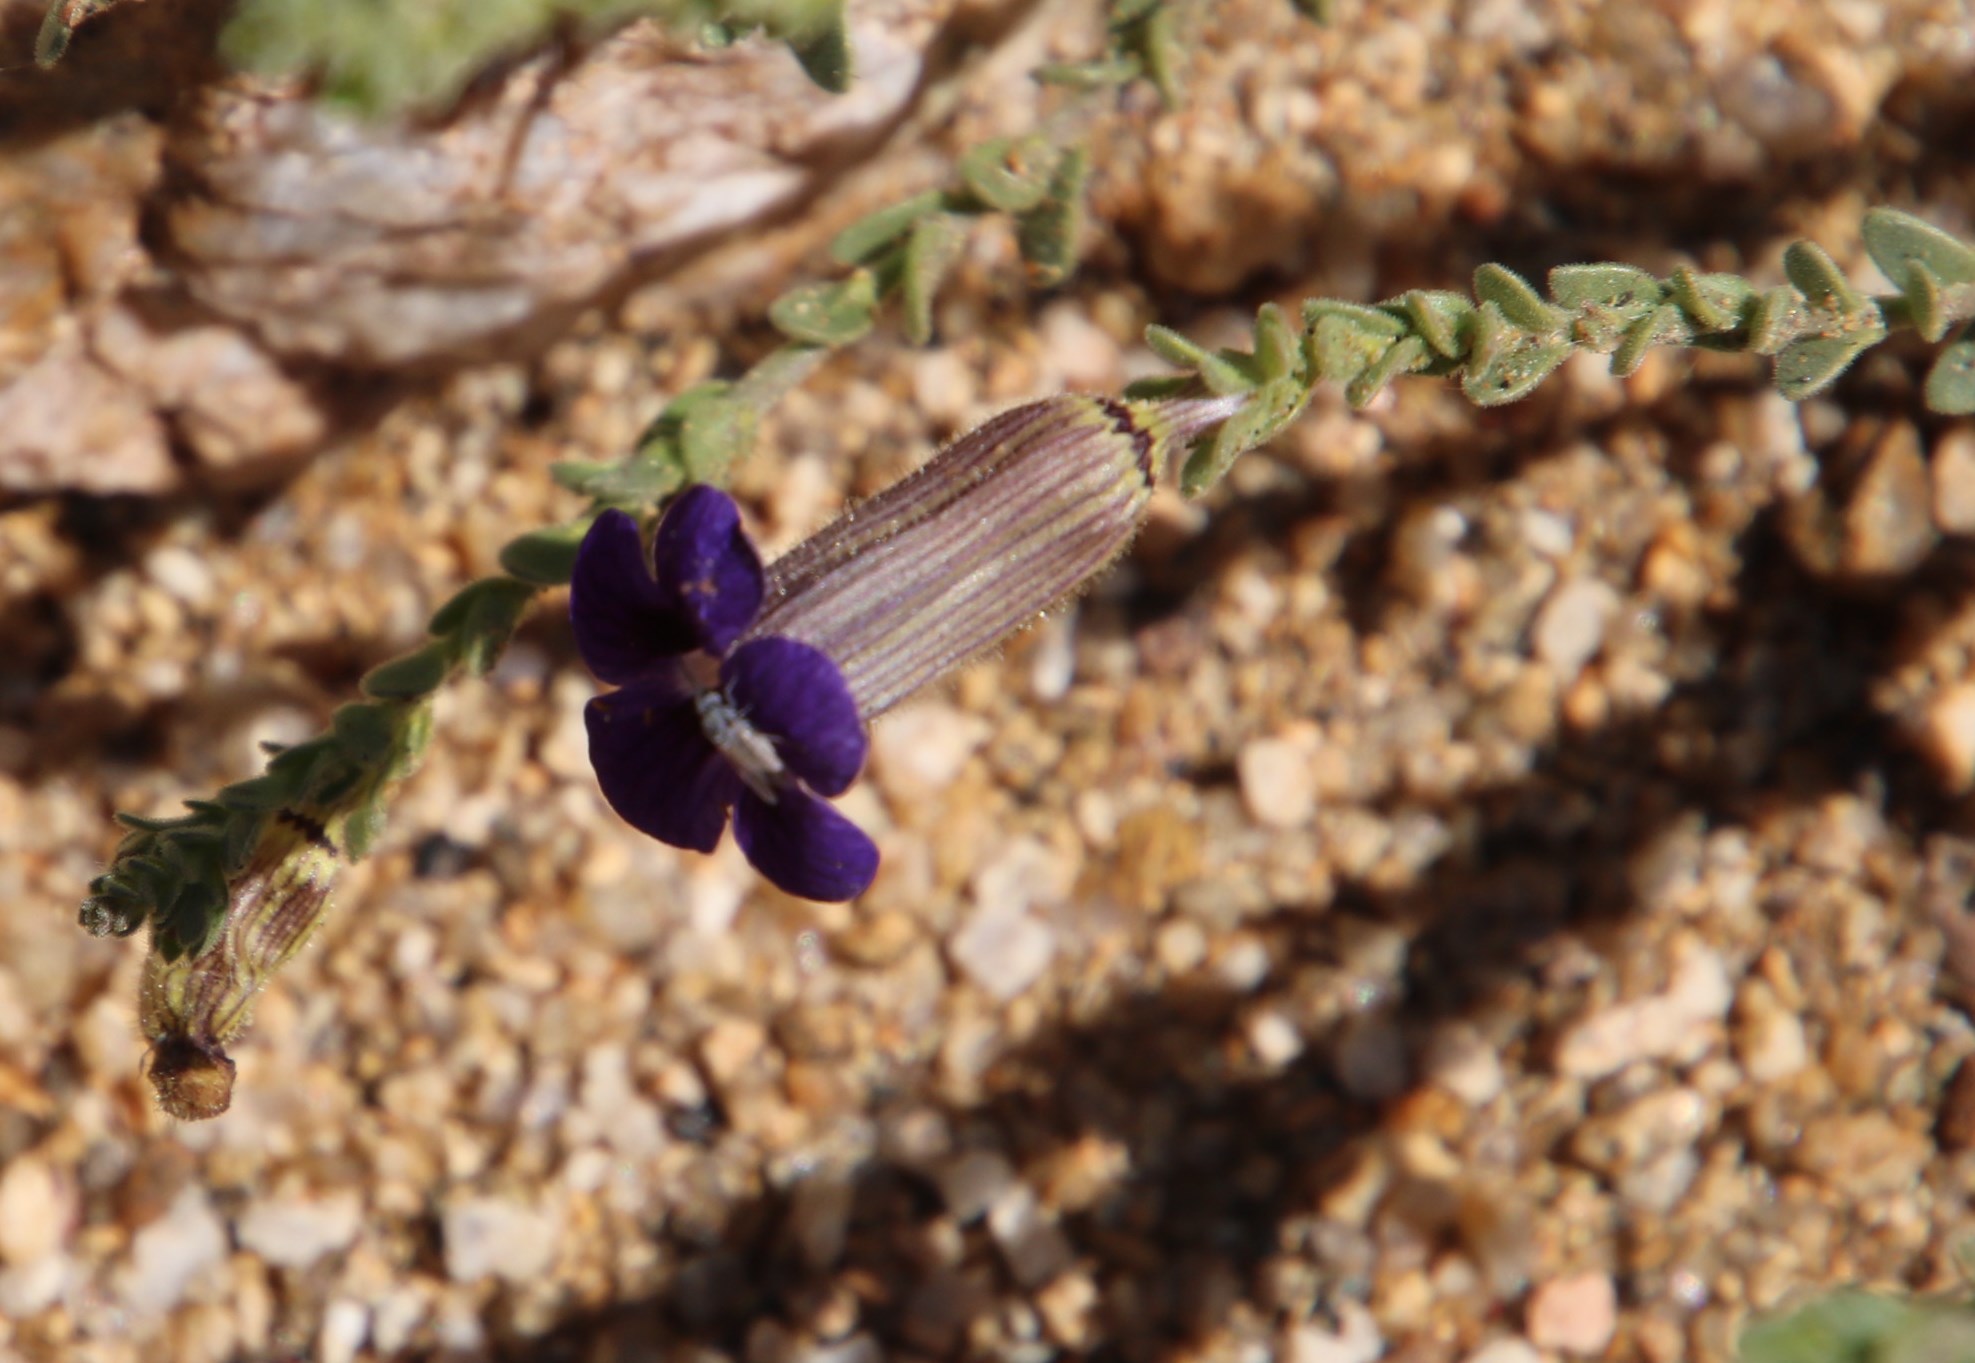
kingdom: Plantae
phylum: Tracheophyta
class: Magnoliopsida
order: Lamiales
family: Scrophulariaceae
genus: Peliostomum
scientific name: Peliostomum virgatum
